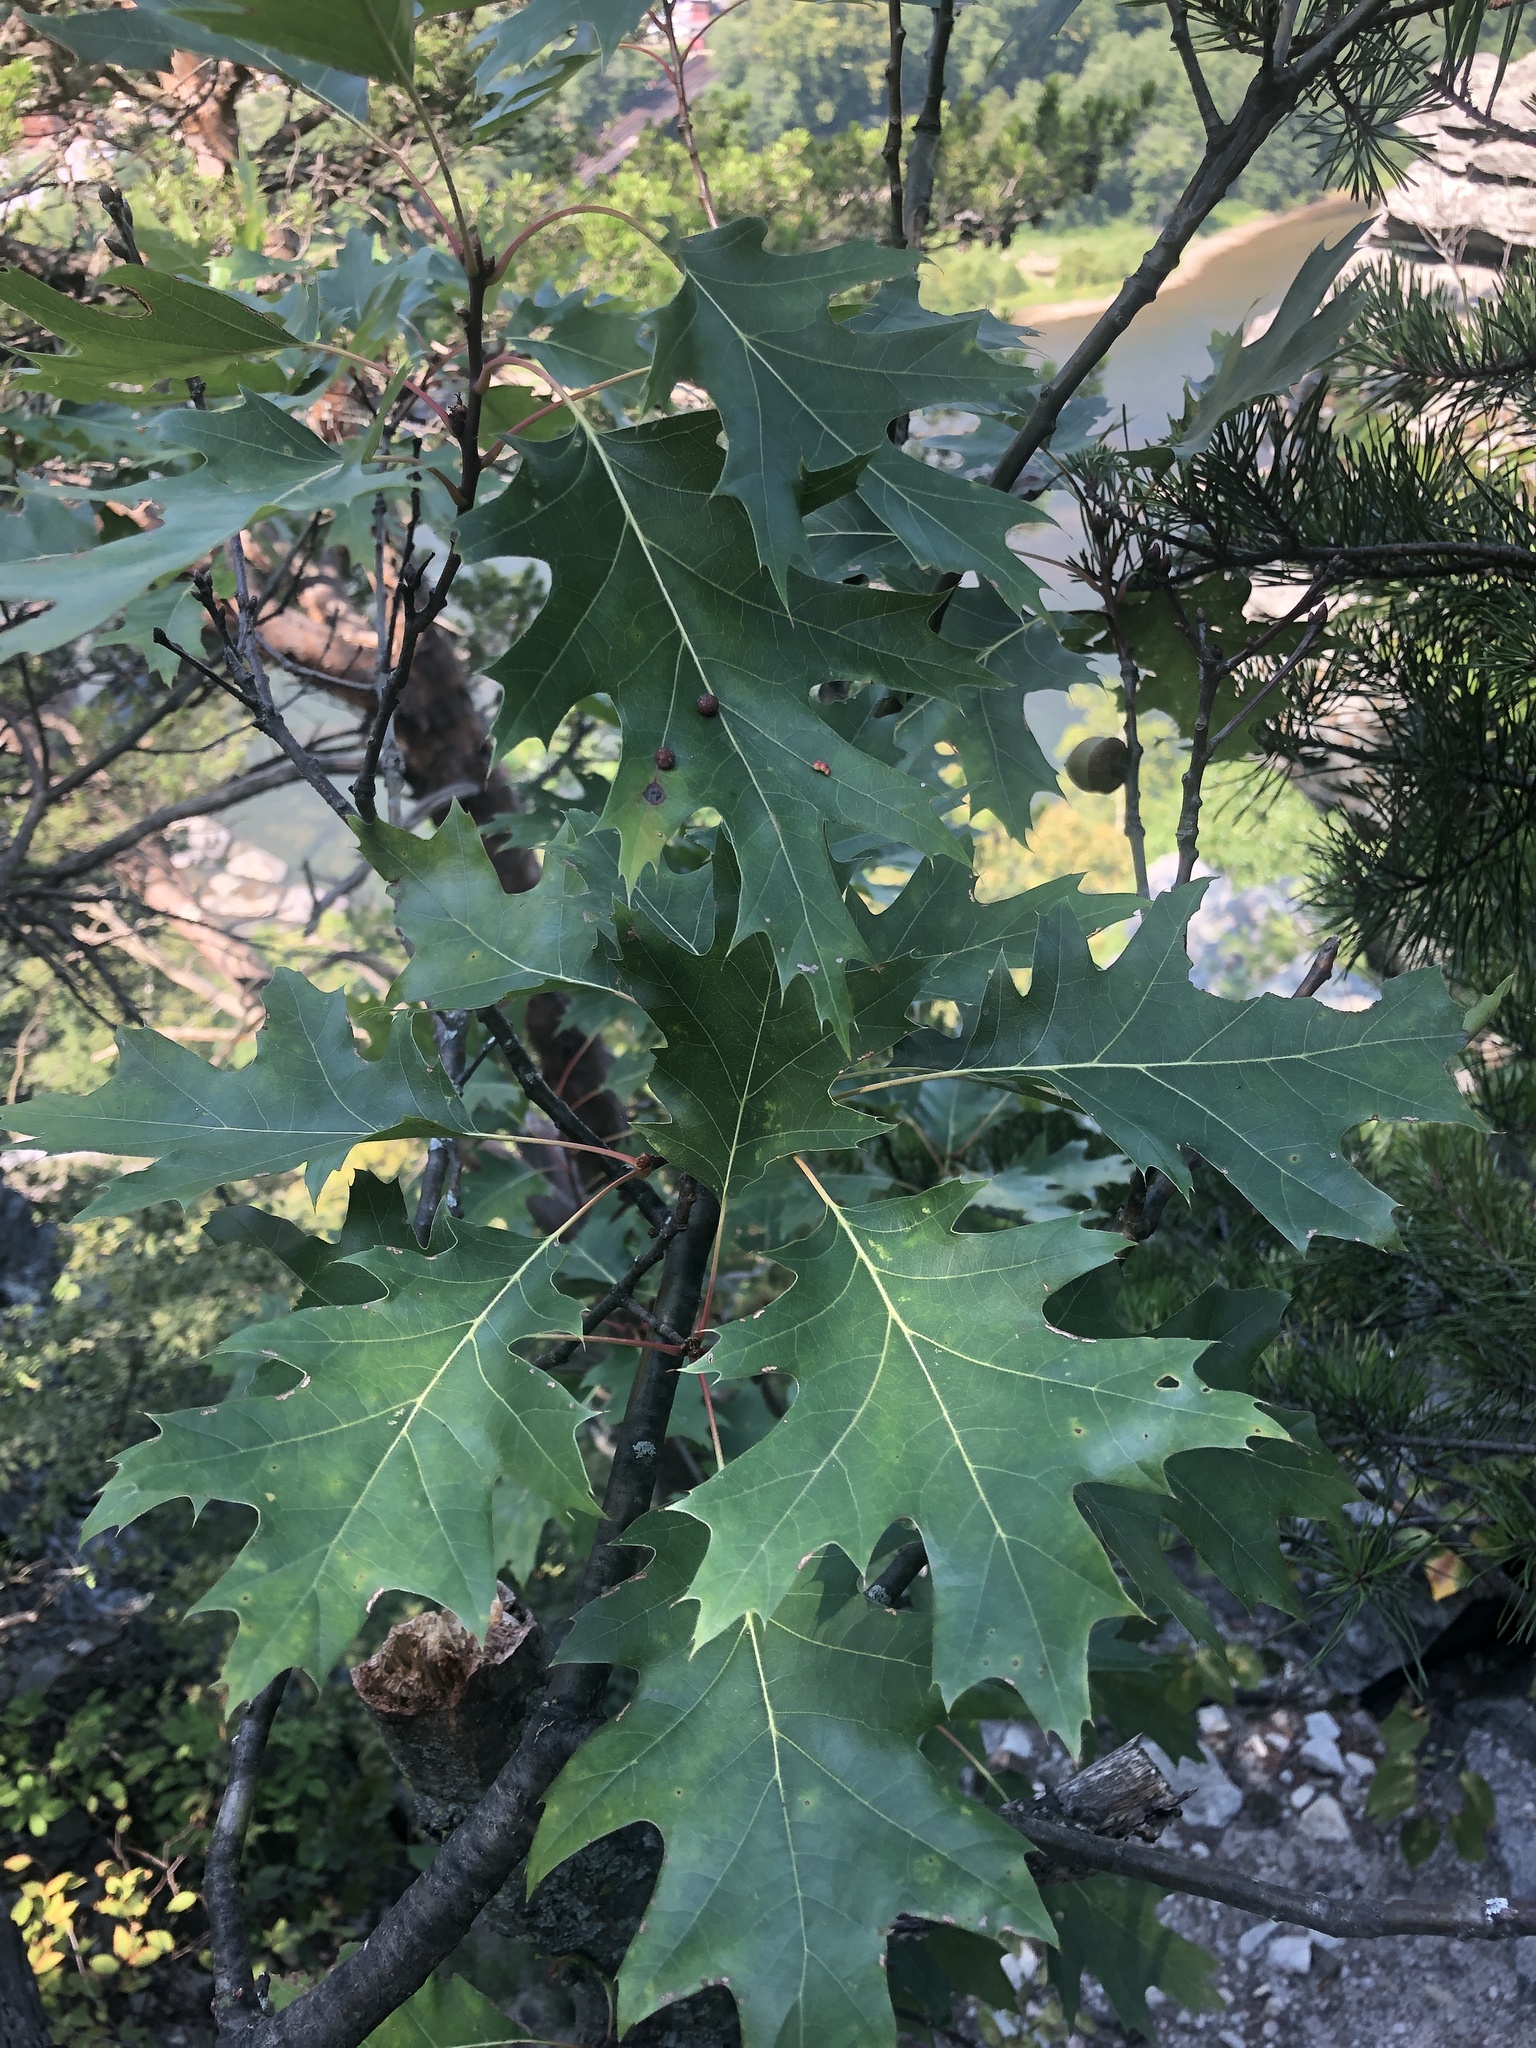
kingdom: Plantae
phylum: Tracheophyta
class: Magnoliopsida
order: Fagales
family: Fagaceae
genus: Quercus
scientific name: Quercus rubra
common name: Red oak
